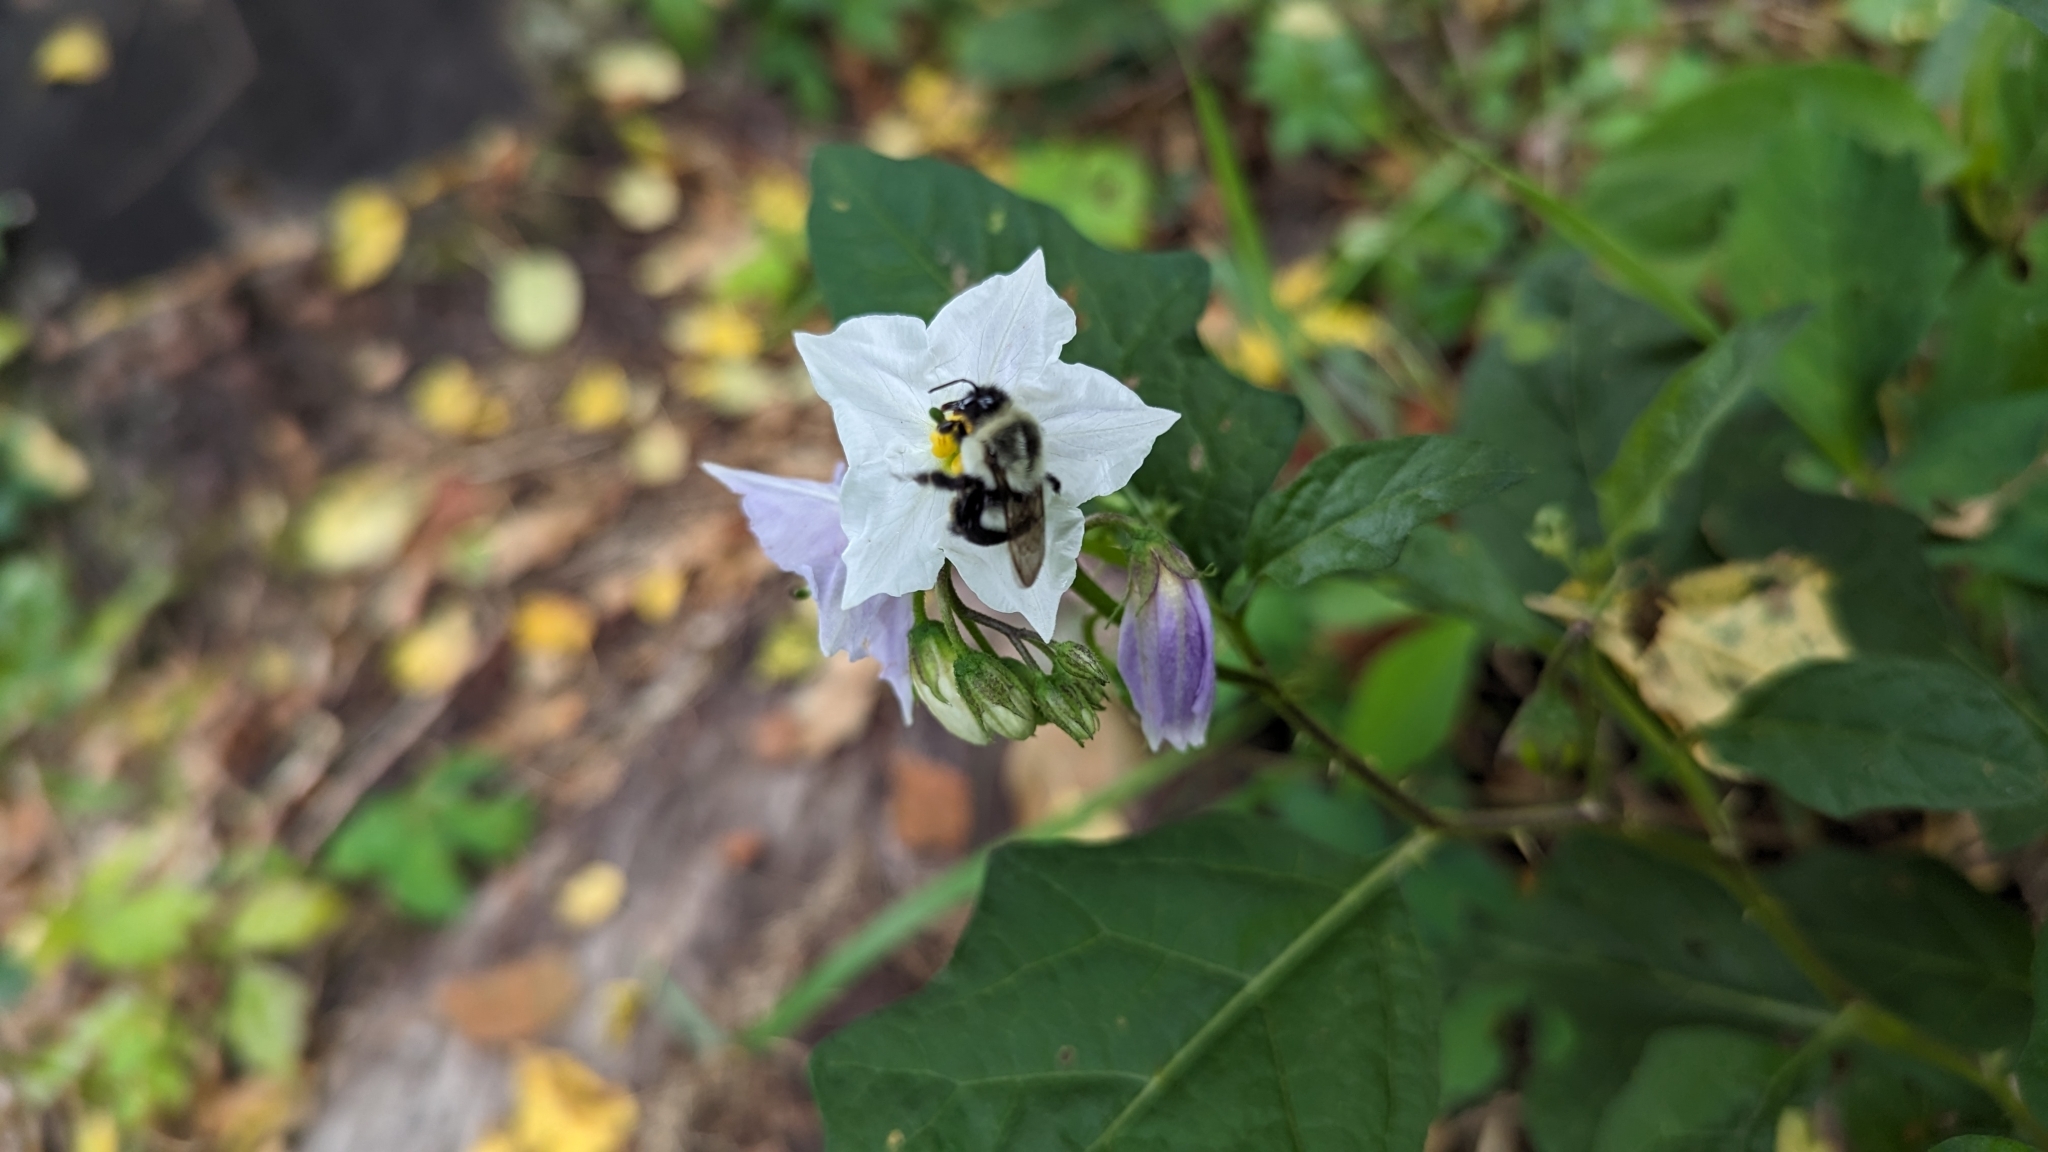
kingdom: Animalia
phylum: Arthropoda
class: Insecta
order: Hymenoptera
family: Apidae
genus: Bombus
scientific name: Bombus impatiens
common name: Common eastern bumble bee
